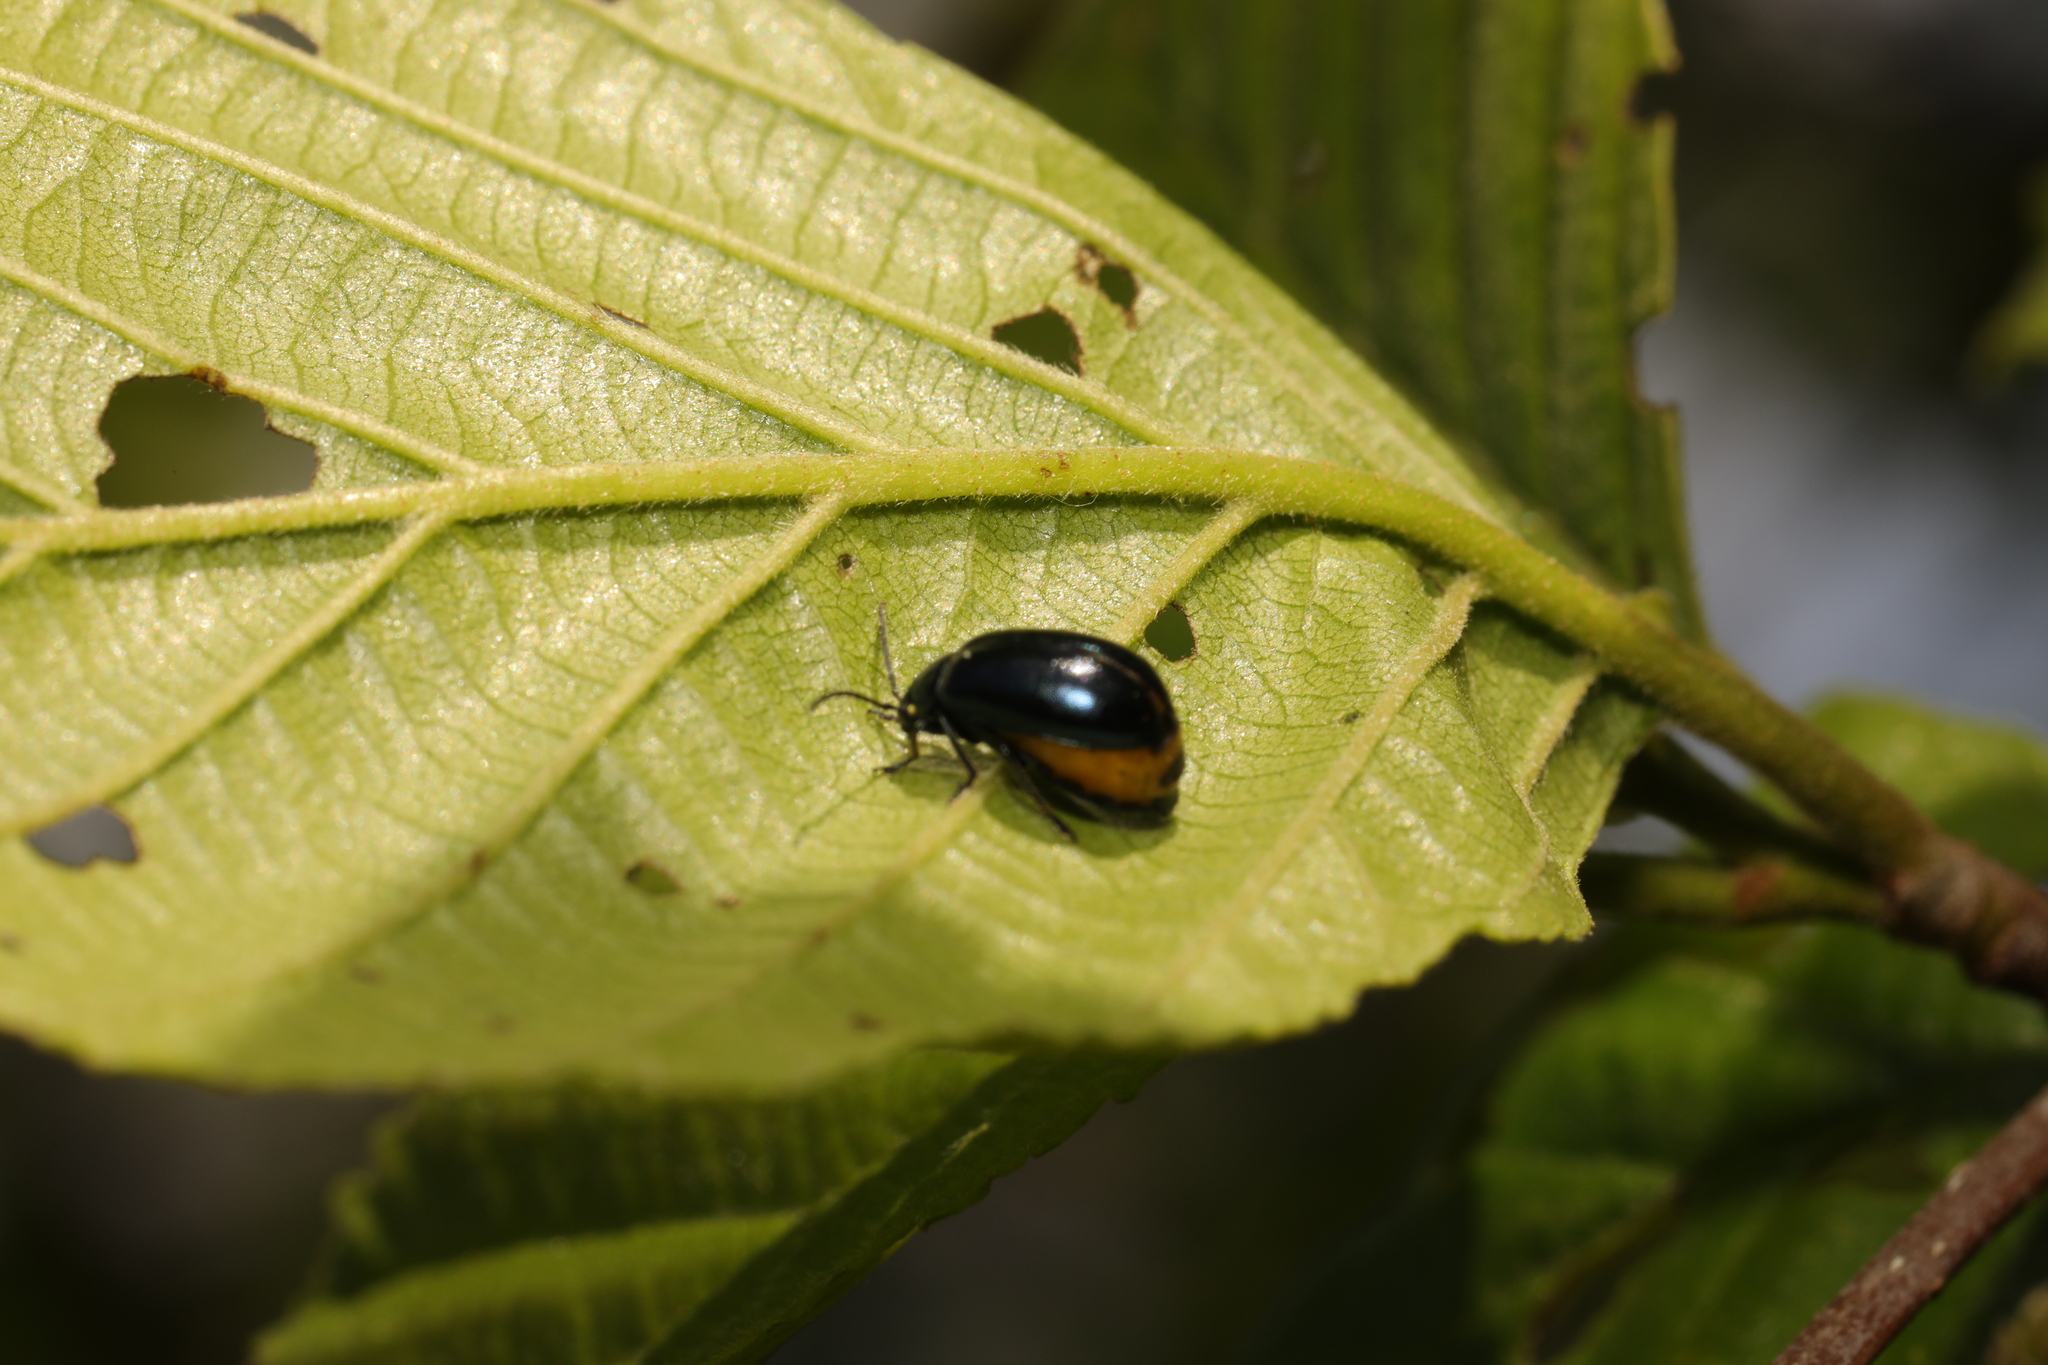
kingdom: Animalia
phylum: Arthropoda
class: Insecta
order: Coleoptera
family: Chrysomelidae
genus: Agelastica
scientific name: Agelastica alni
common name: Alder leaf beetle
